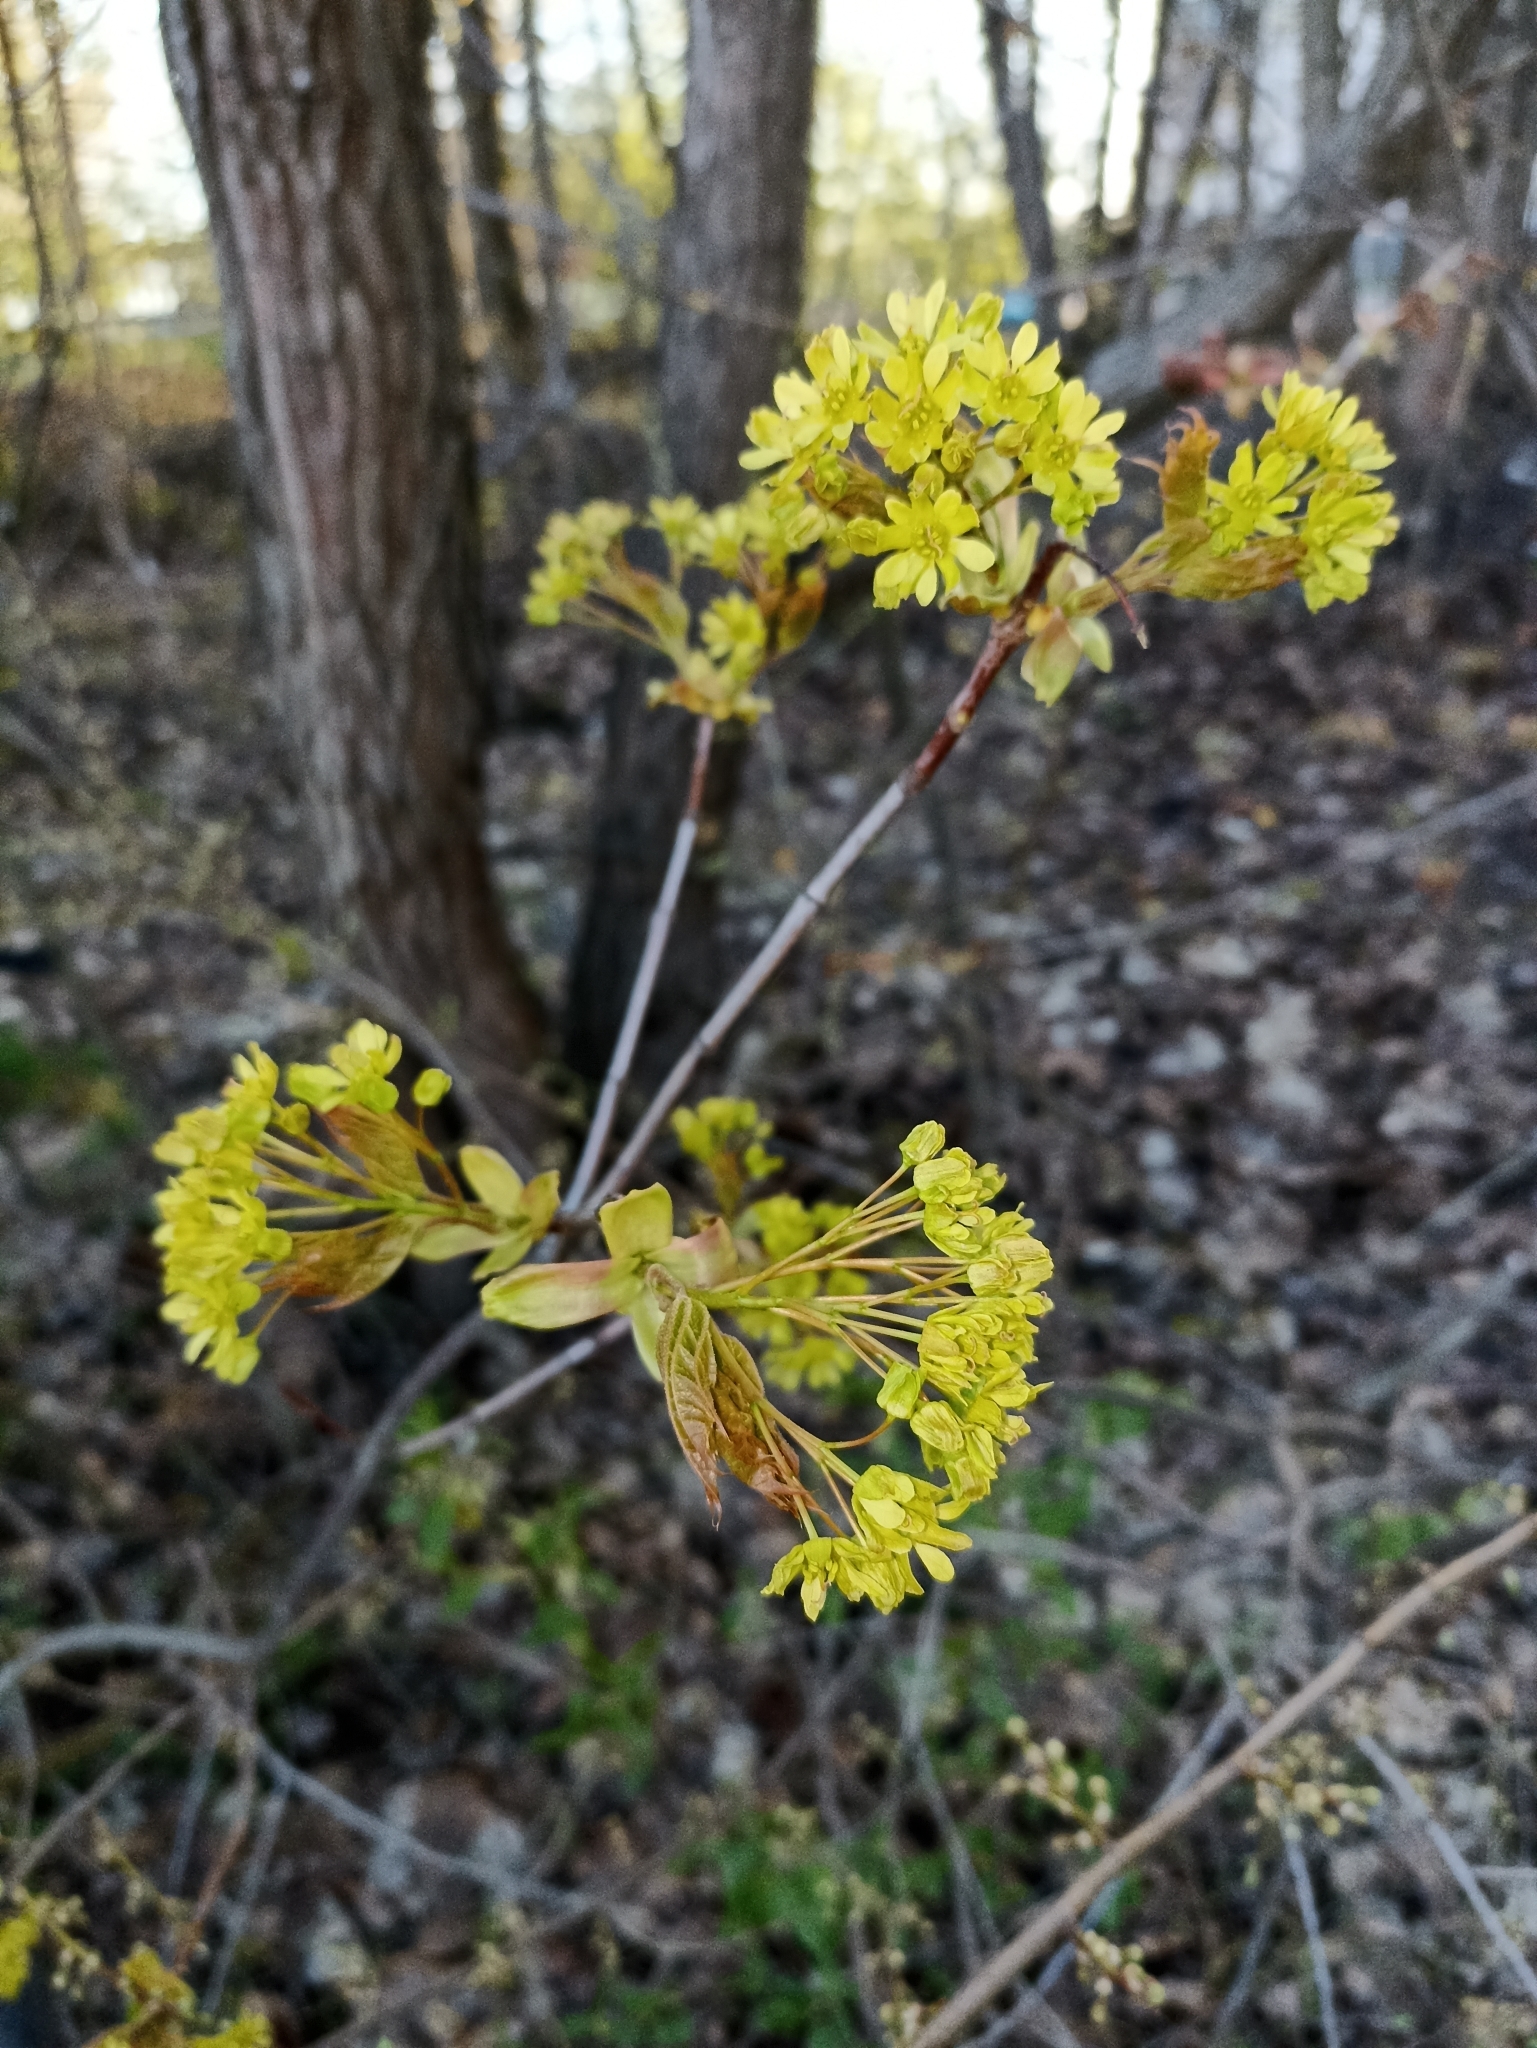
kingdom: Plantae
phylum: Tracheophyta
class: Magnoliopsida
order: Sapindales
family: Sapindaceae
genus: Acer
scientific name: Acer platanoides
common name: Norway maple
